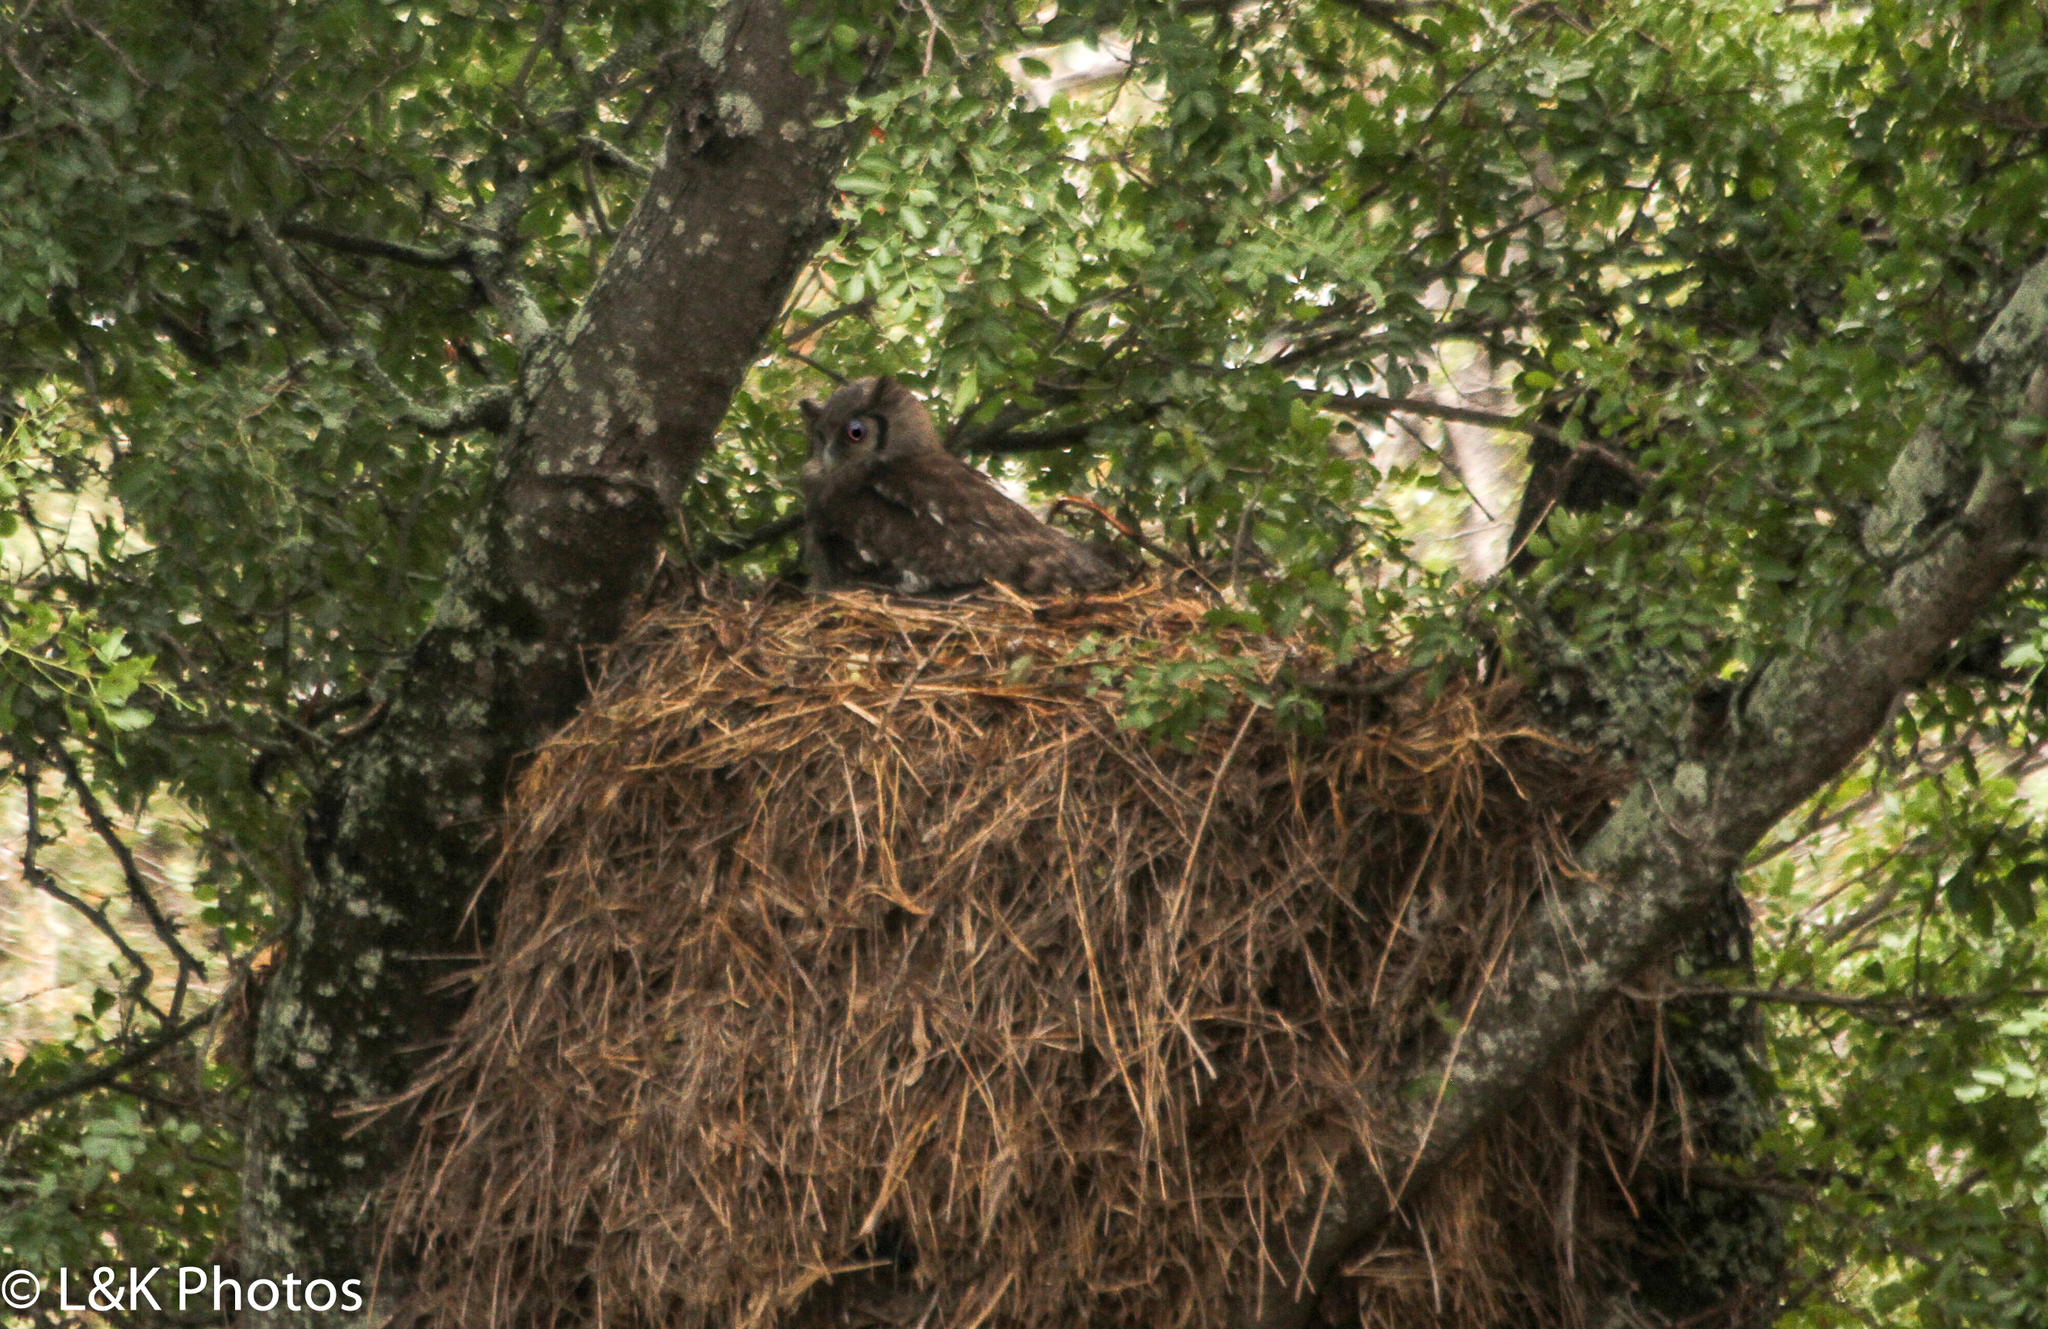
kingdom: Animalia
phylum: Chordata
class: Aves
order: Strigiformes
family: Strigidae
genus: Bubo
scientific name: Bubo lacteus
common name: Verreaux's eagle-owl
